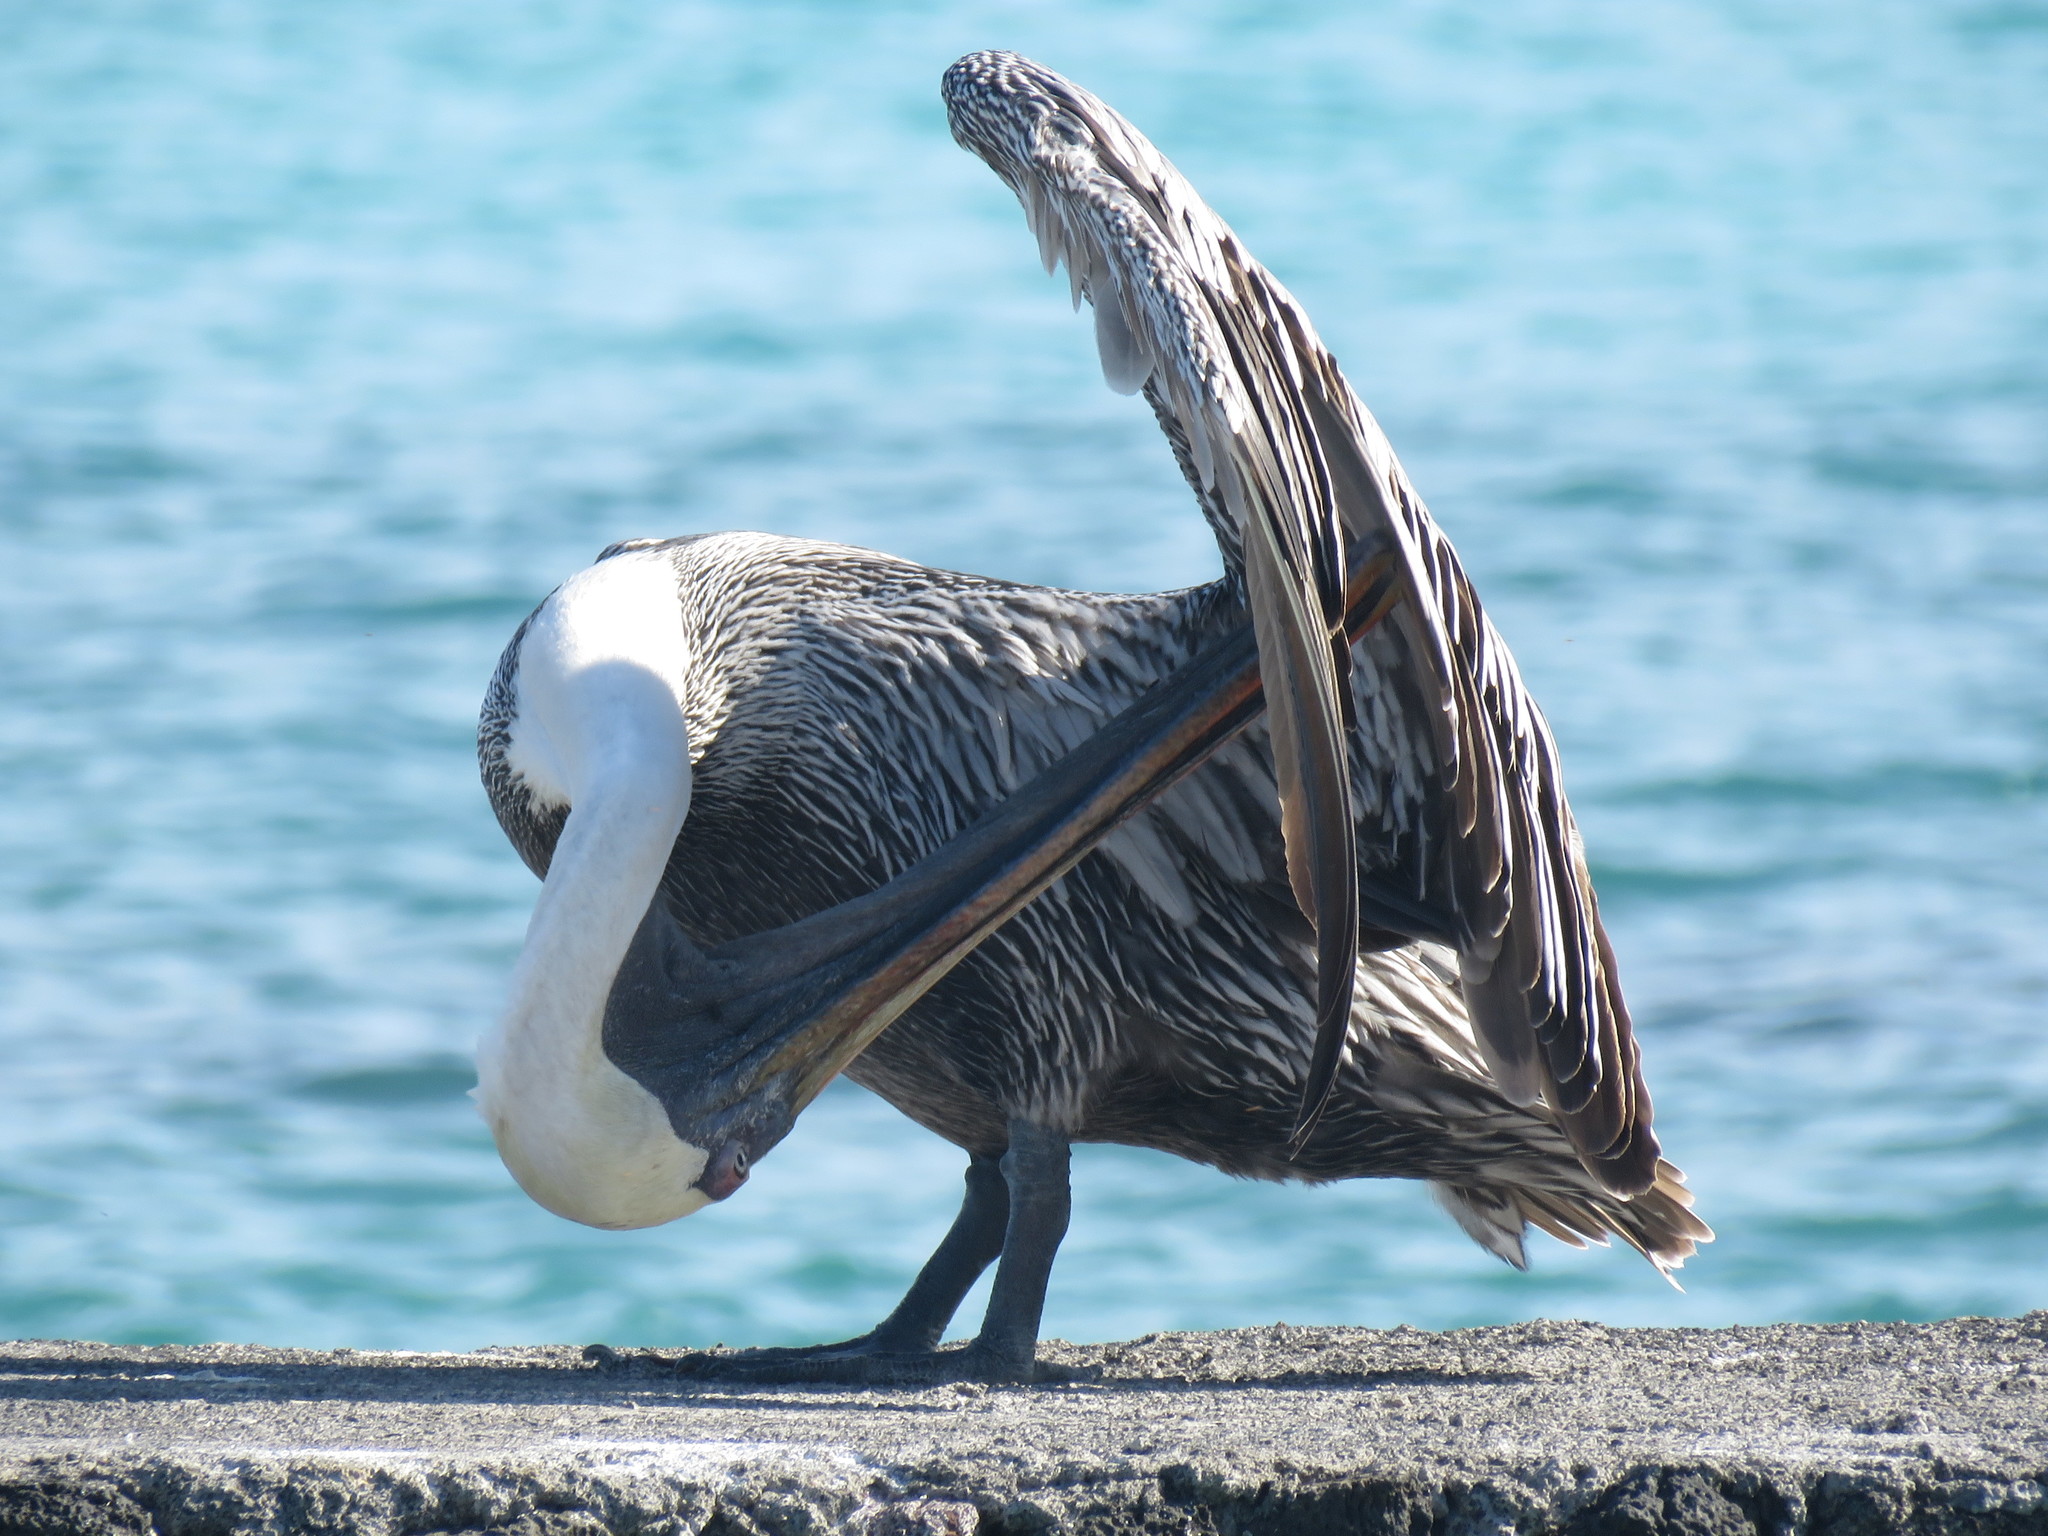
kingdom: Animalia
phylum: Chordata
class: Aves
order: Pelecaniformes
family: Pelecanidae
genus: Pelecanus
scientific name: Pelecanus occidentalis
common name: Brown pelican
